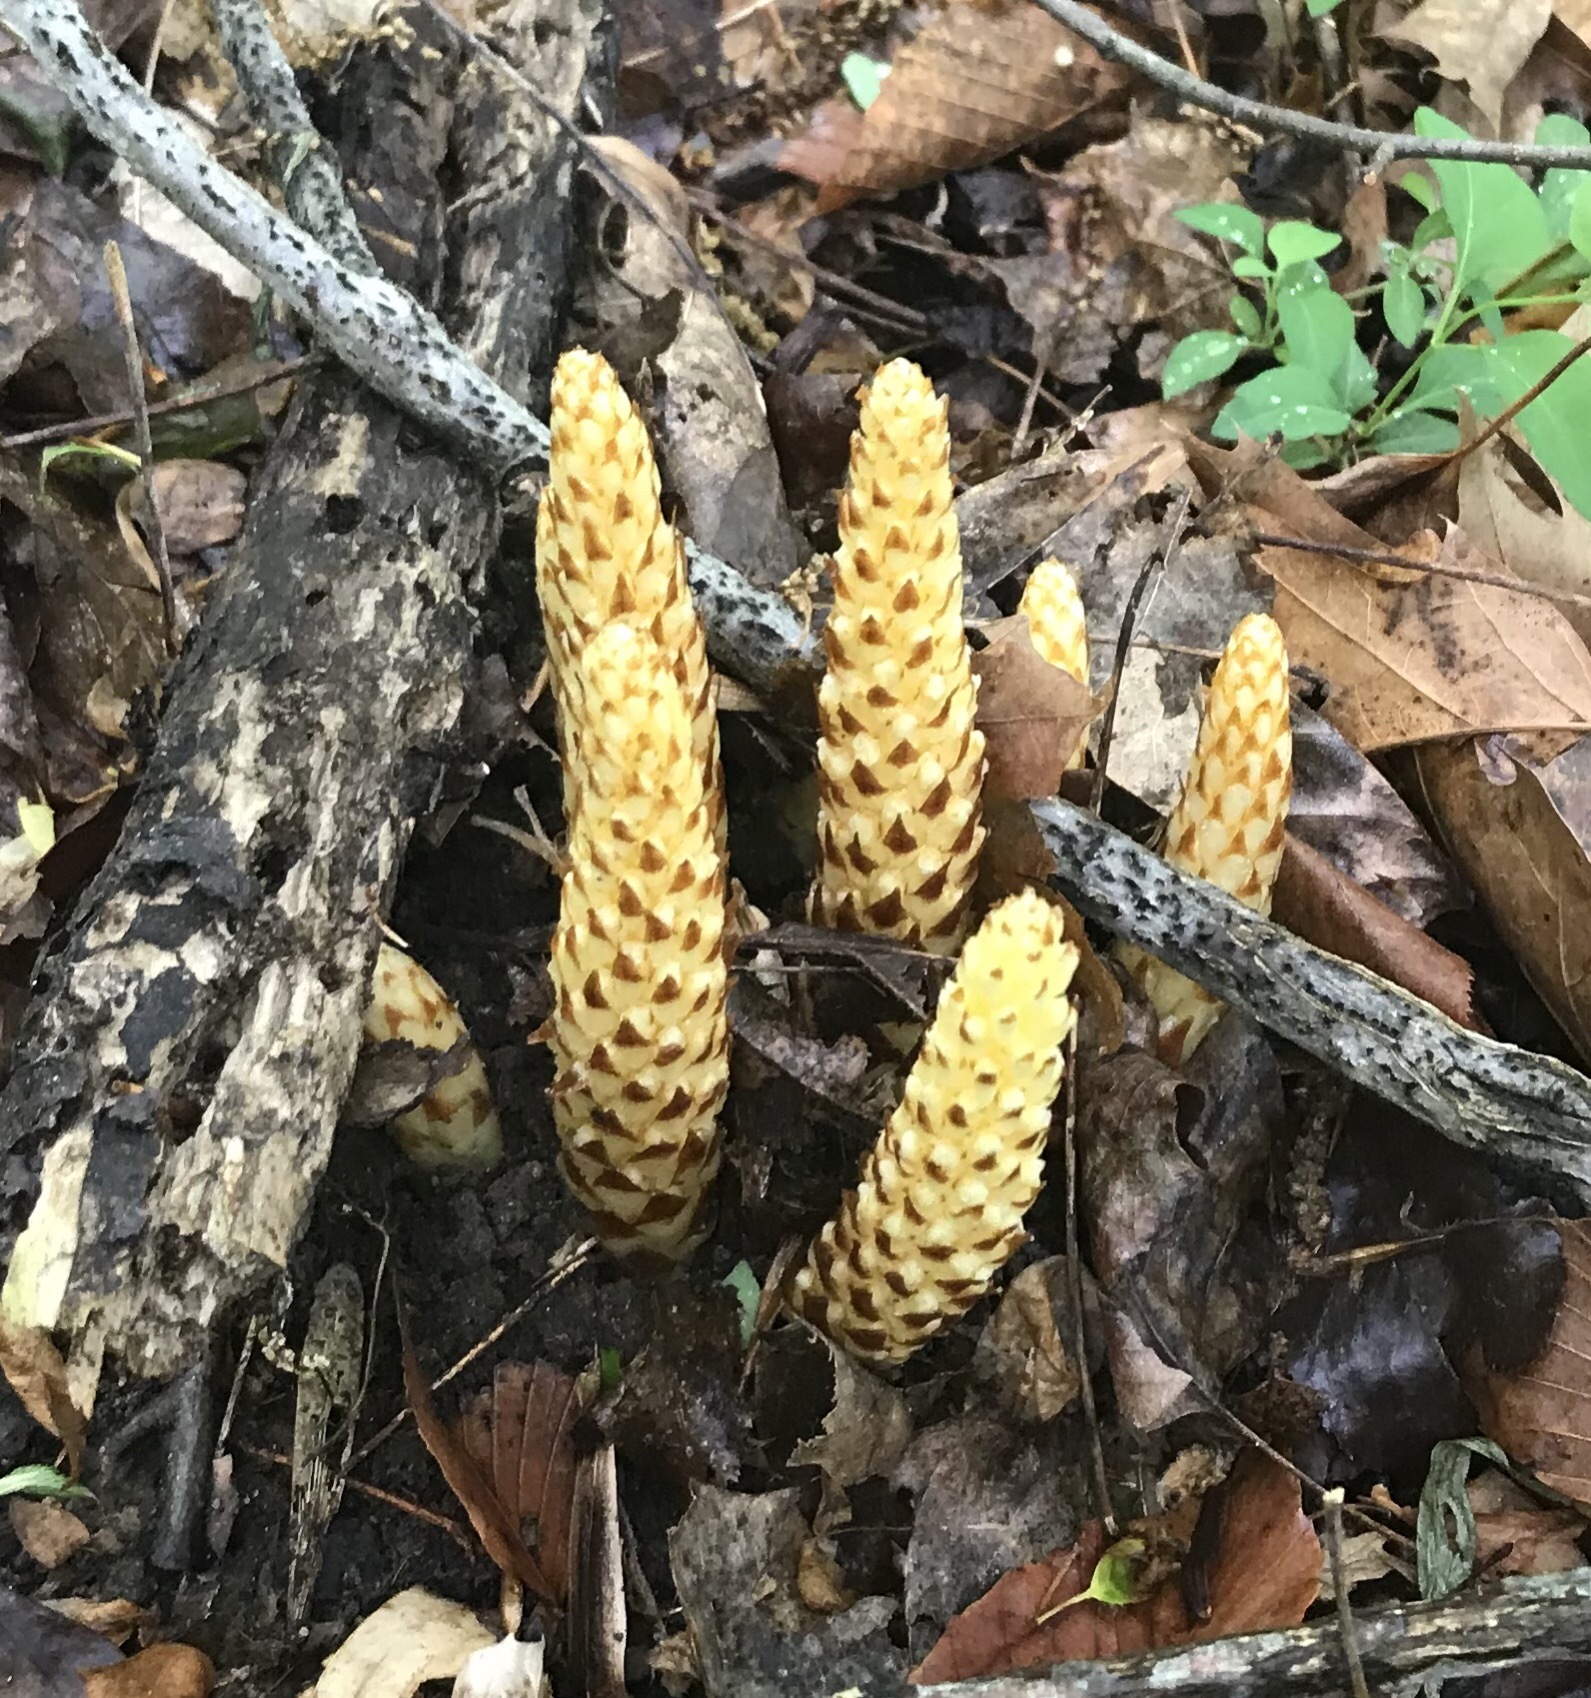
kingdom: Plantae
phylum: Tracheophyta
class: Magnoliopsida
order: Lamiales
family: Orobanchaceae
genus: Conopholis
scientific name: Conopholis americana
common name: American cancer-root
